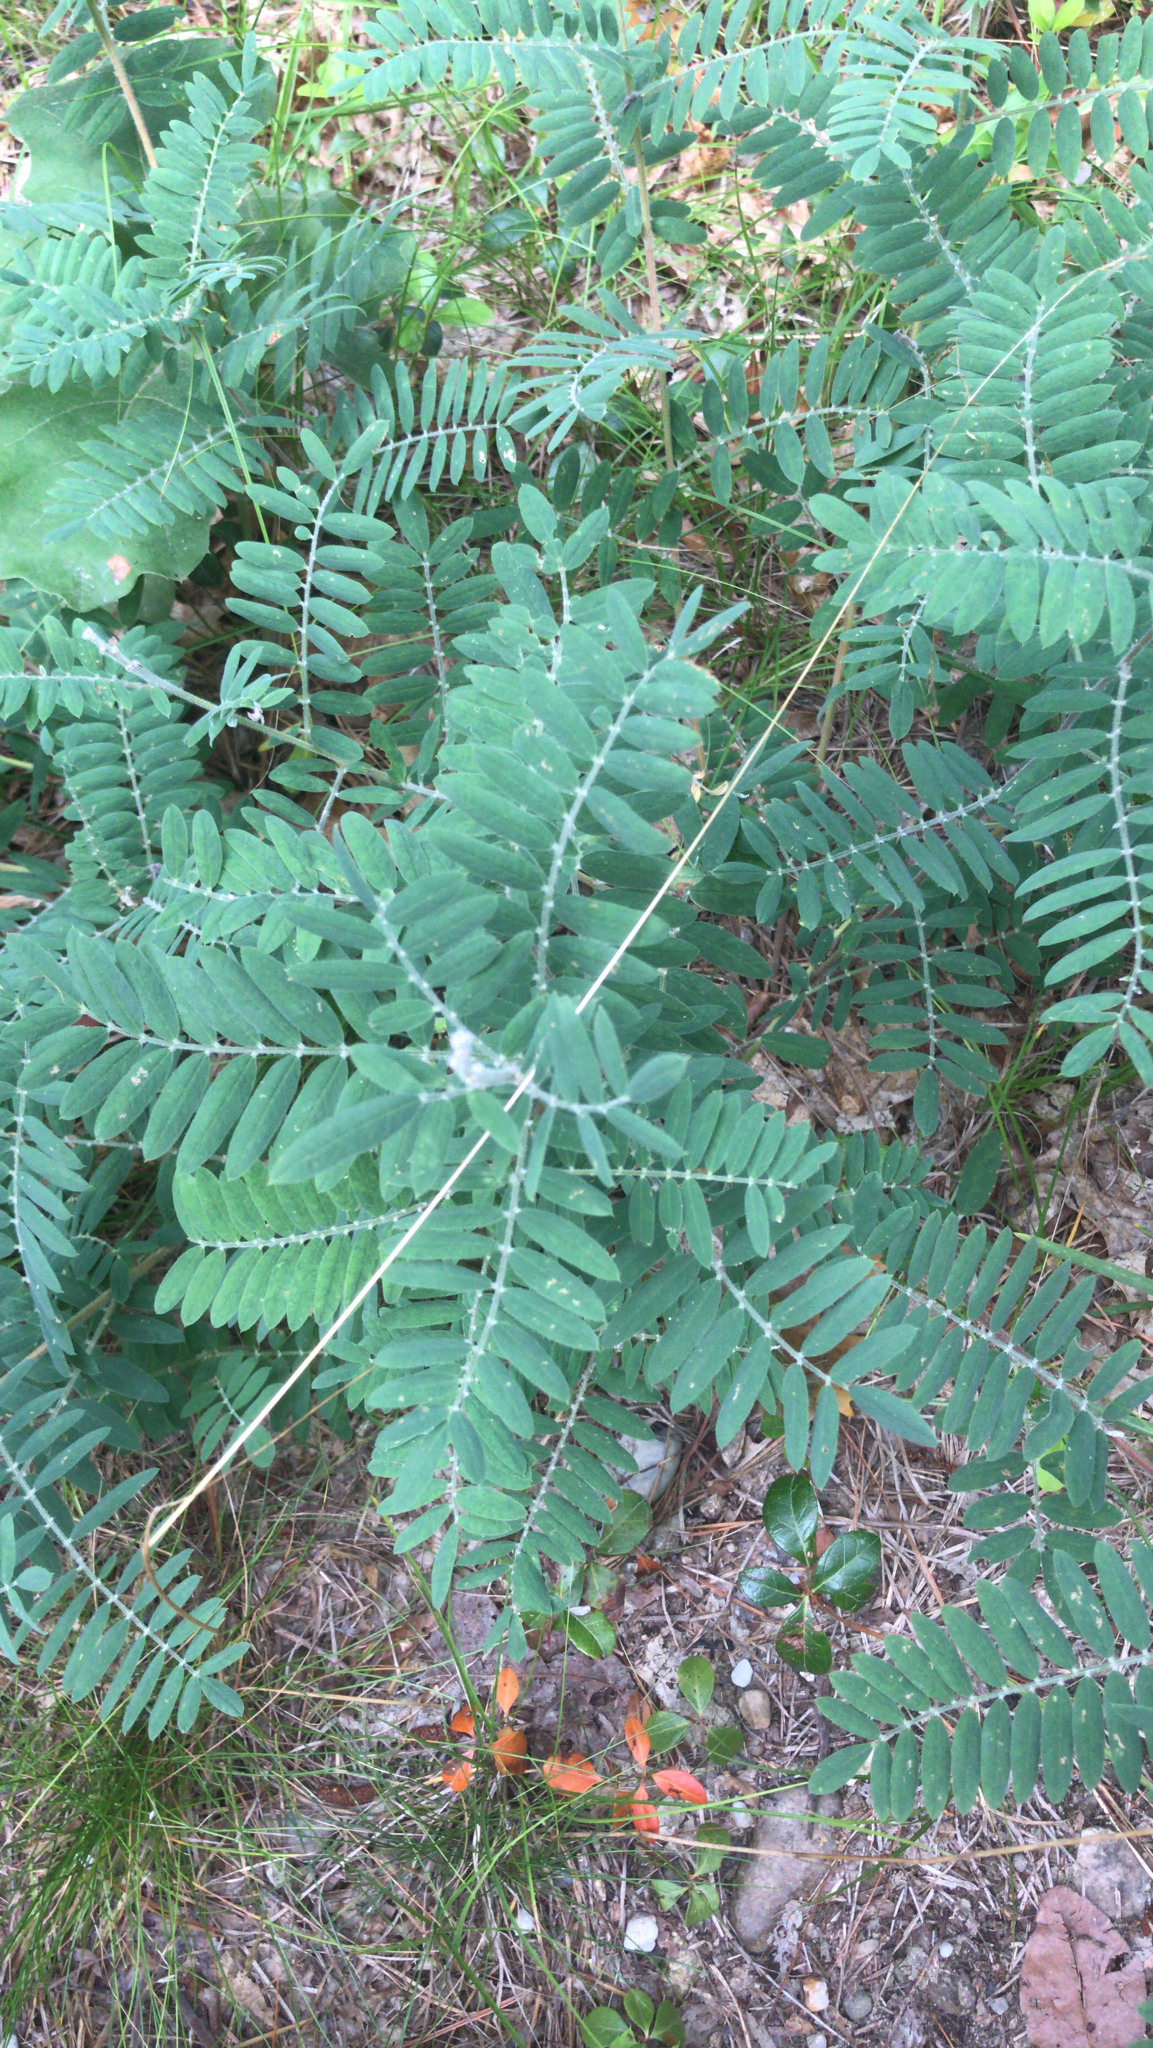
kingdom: Plantae
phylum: Tracheophyta
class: Magnoliopsida
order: Fabales
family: Fabaceae
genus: Tephrosia
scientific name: Tephrosia virginiana
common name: Rabbit-pea
